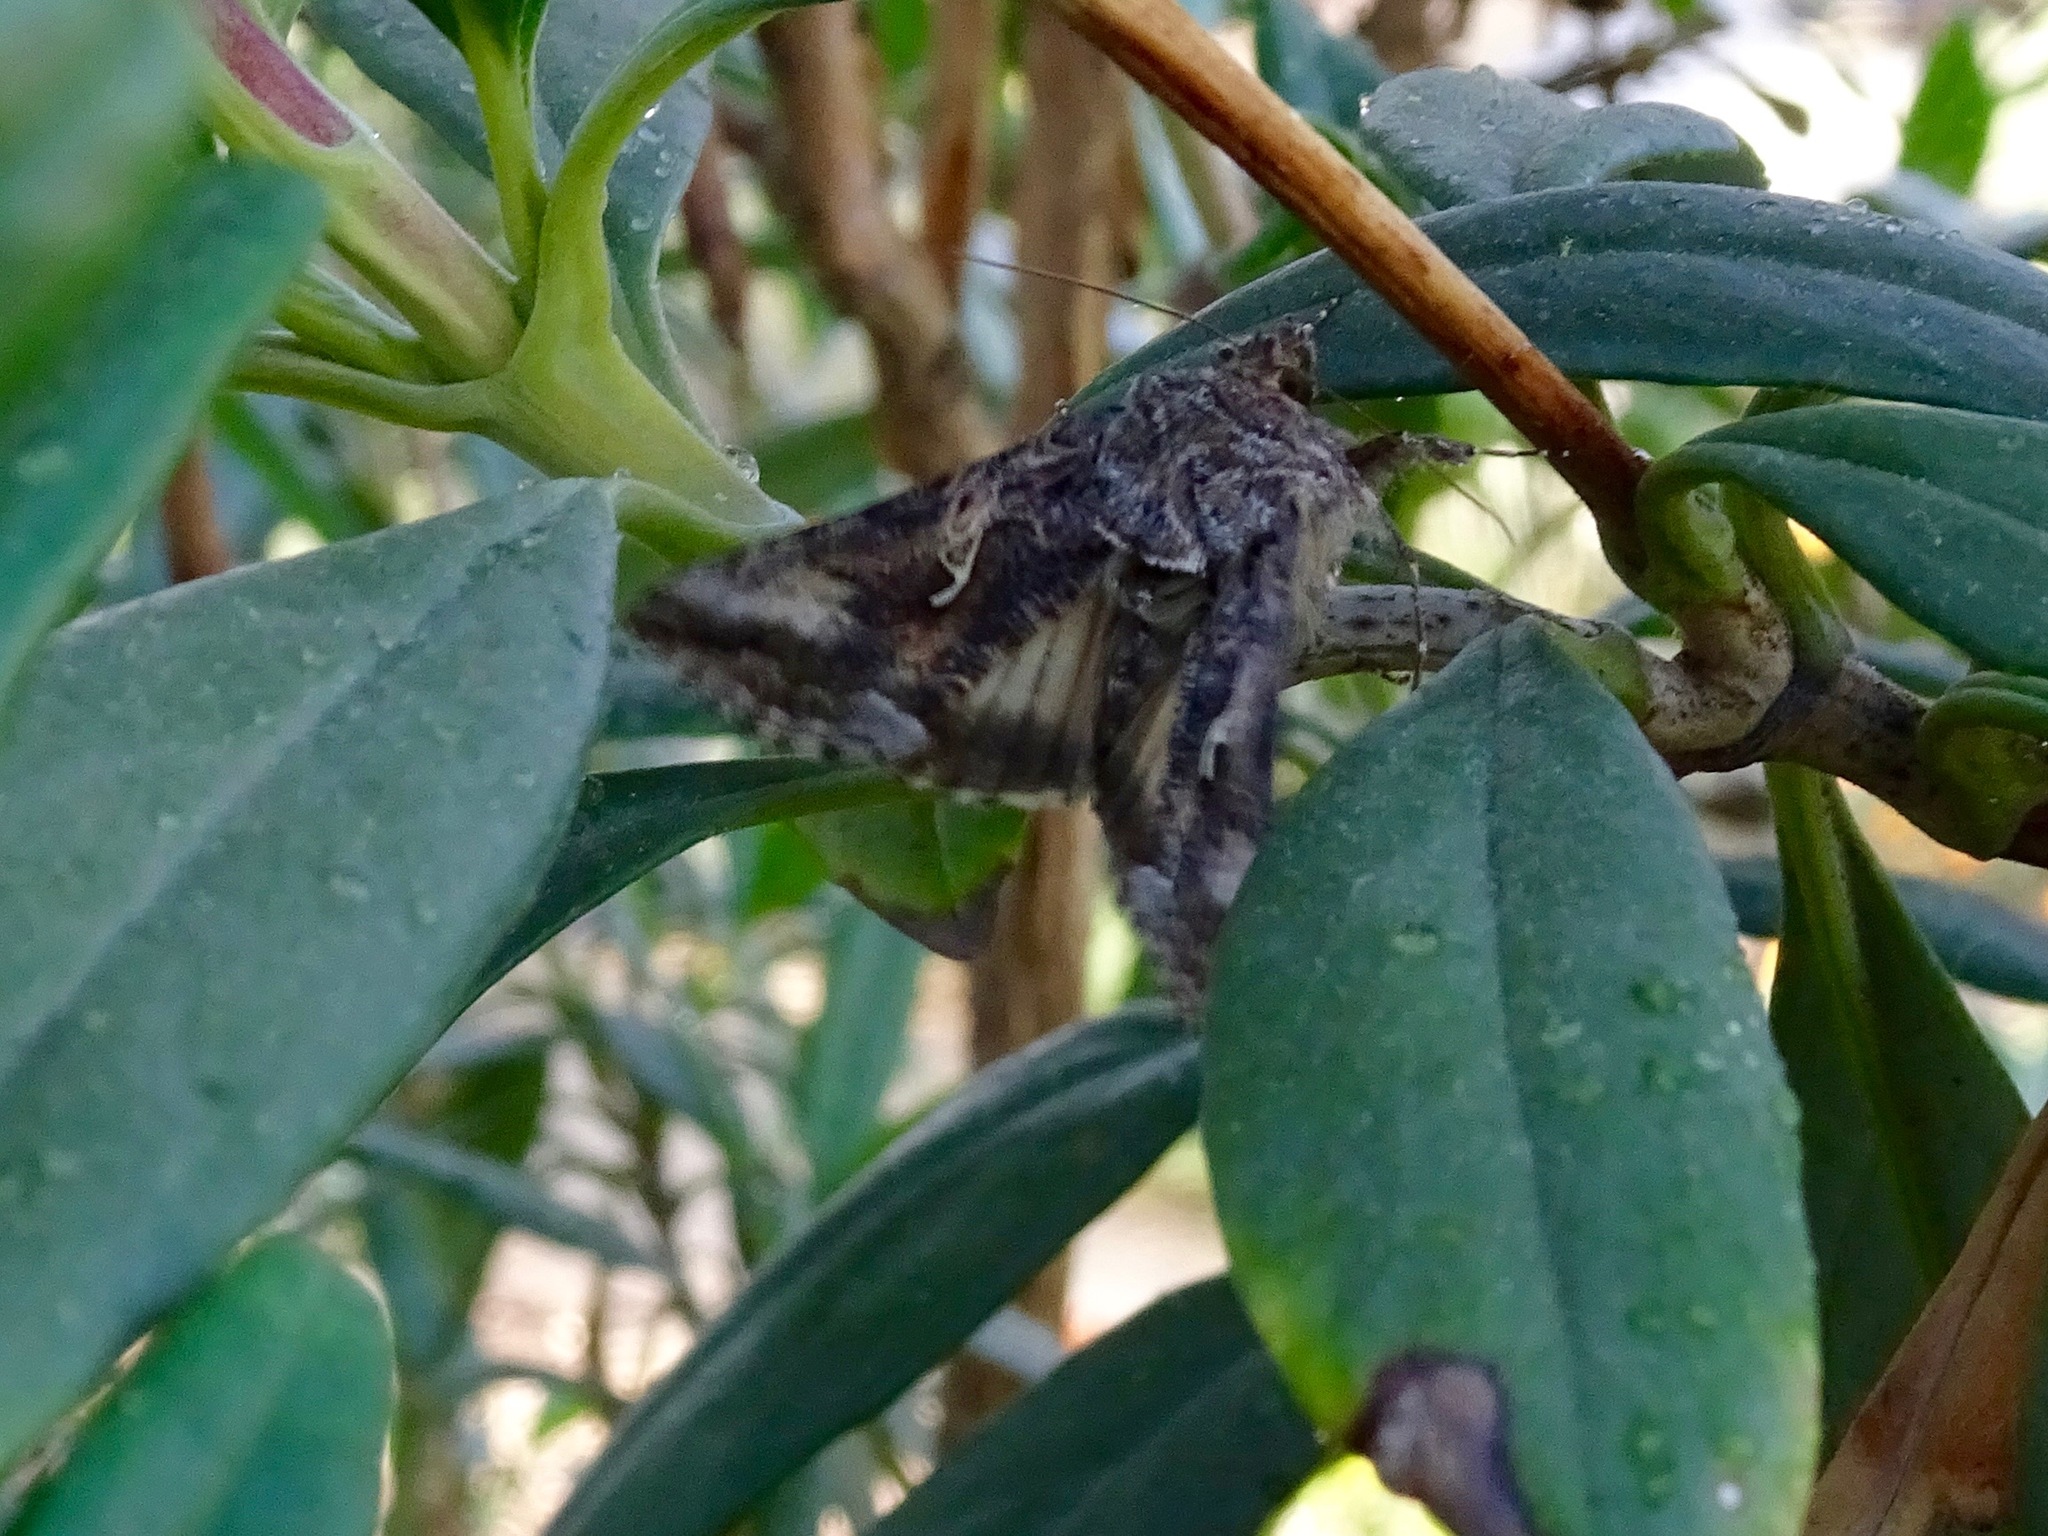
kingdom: Animalia
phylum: Arthropoda
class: Insecta
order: Lepidoptera
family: Noctuidae
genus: Autographa
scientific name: Autographa californica
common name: Alfalfa looper
